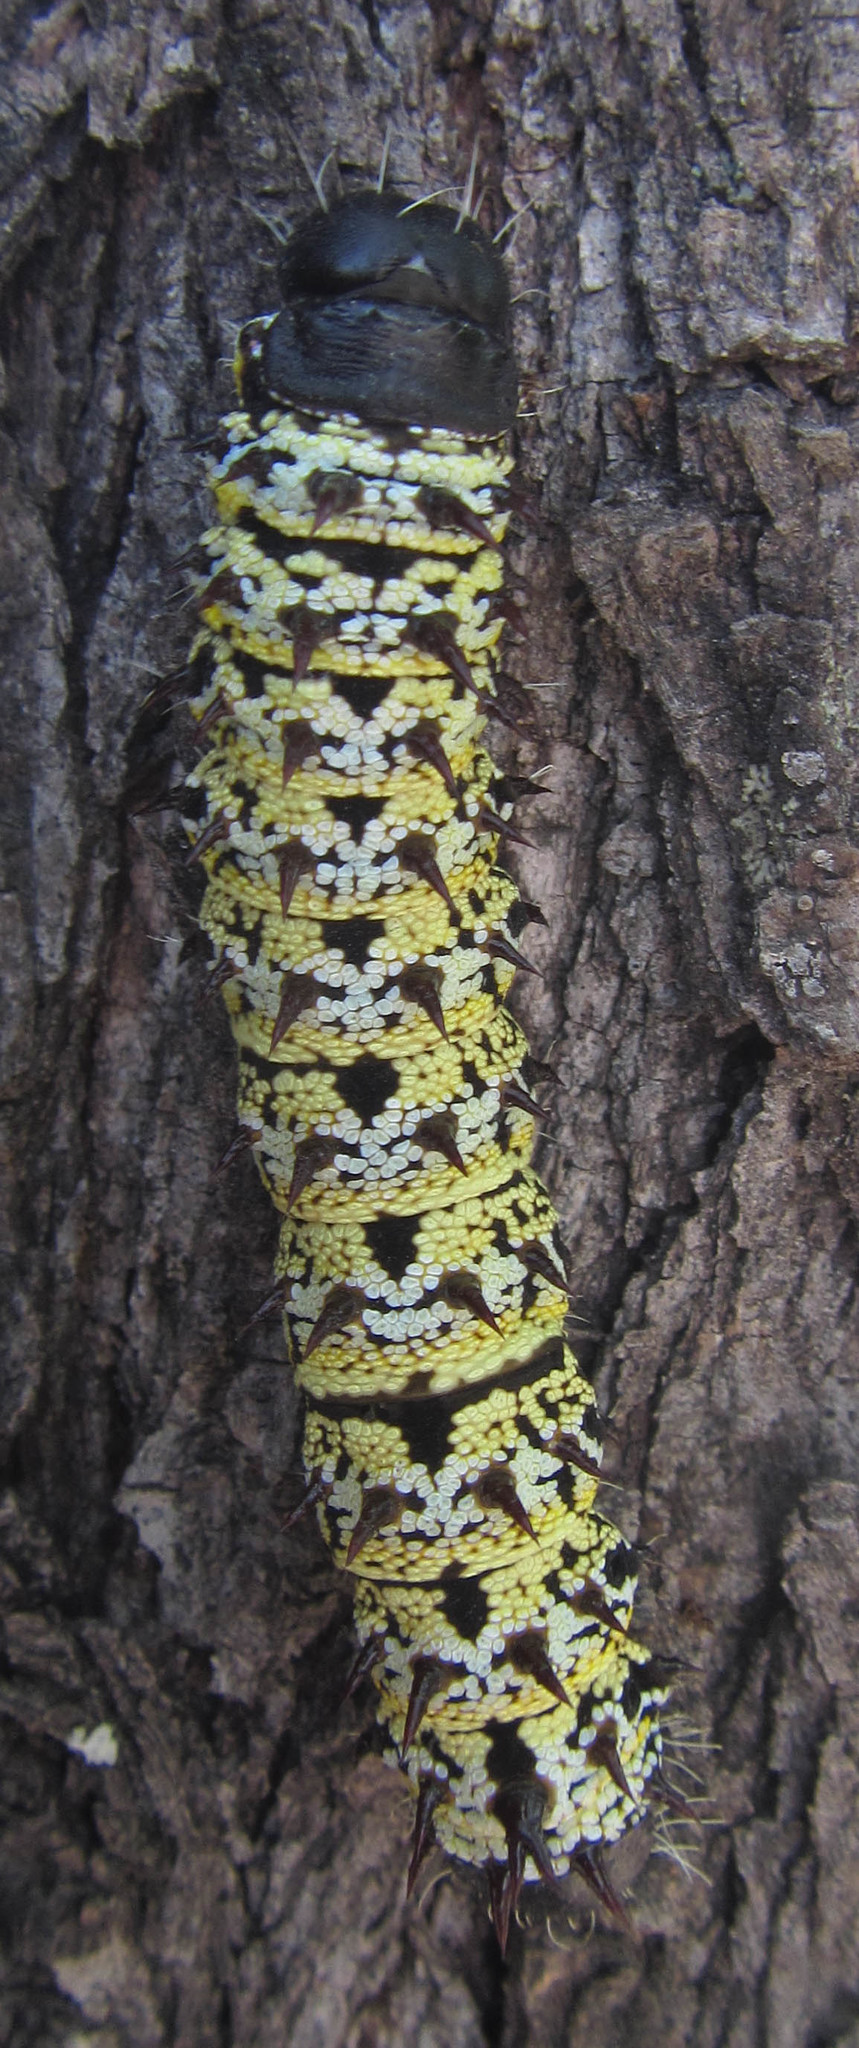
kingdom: Animalia
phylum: Arthropoda
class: Insecta
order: Lepidoptera
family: Saturniidae
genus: Gonimbrasia
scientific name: Gonimbrasia belina
